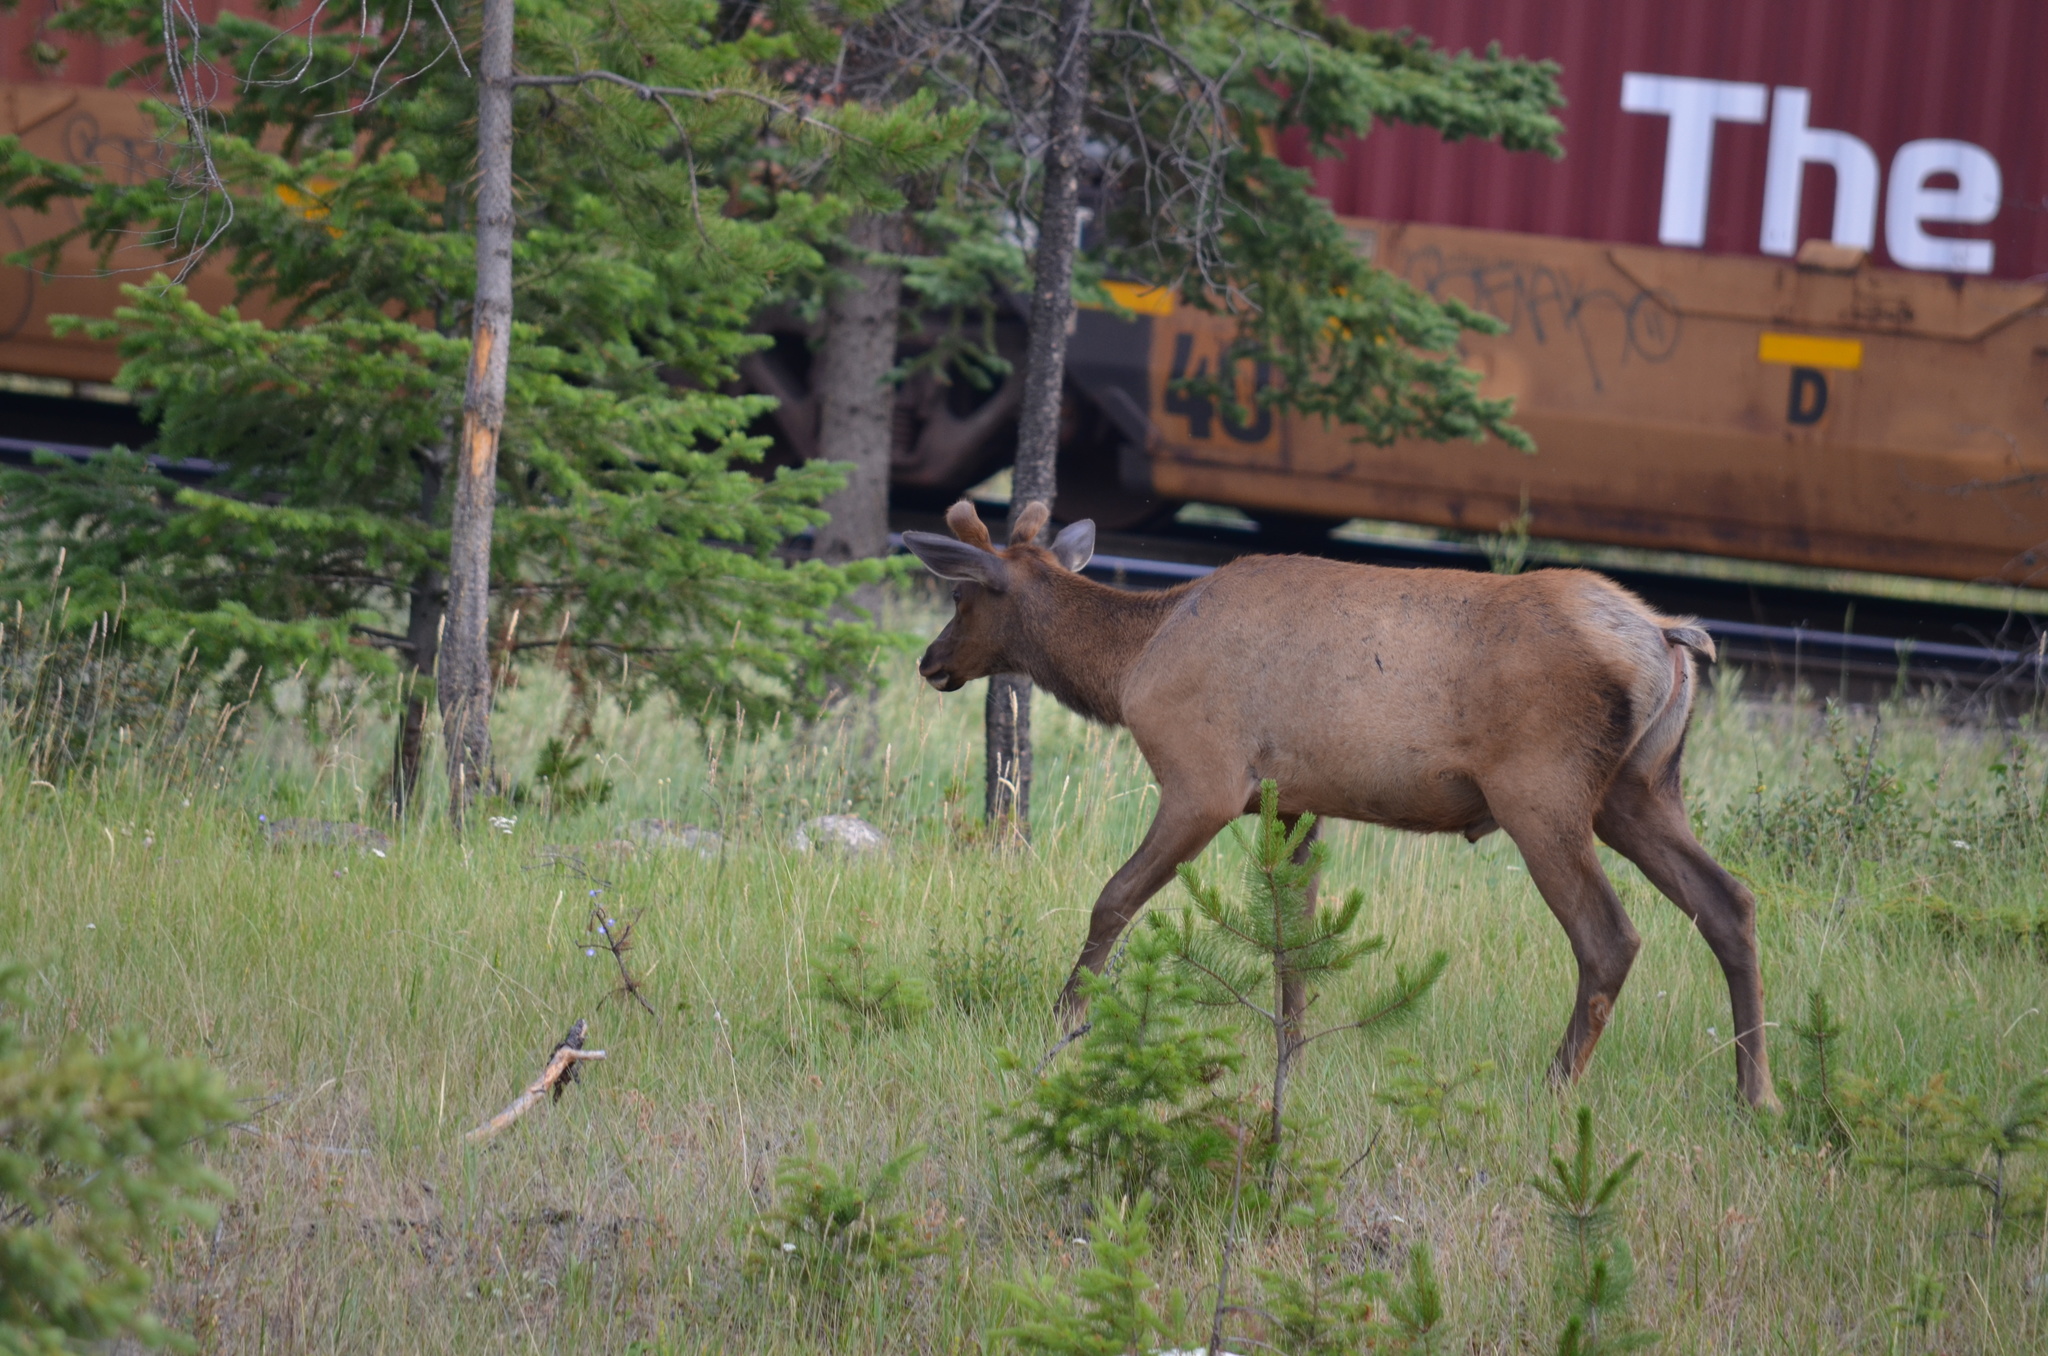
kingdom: Animalia
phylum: Chordata
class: Mammalia
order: Artiodactyla
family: Cervidae
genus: Cervus
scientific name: Cervus elaphus
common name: Red deer
